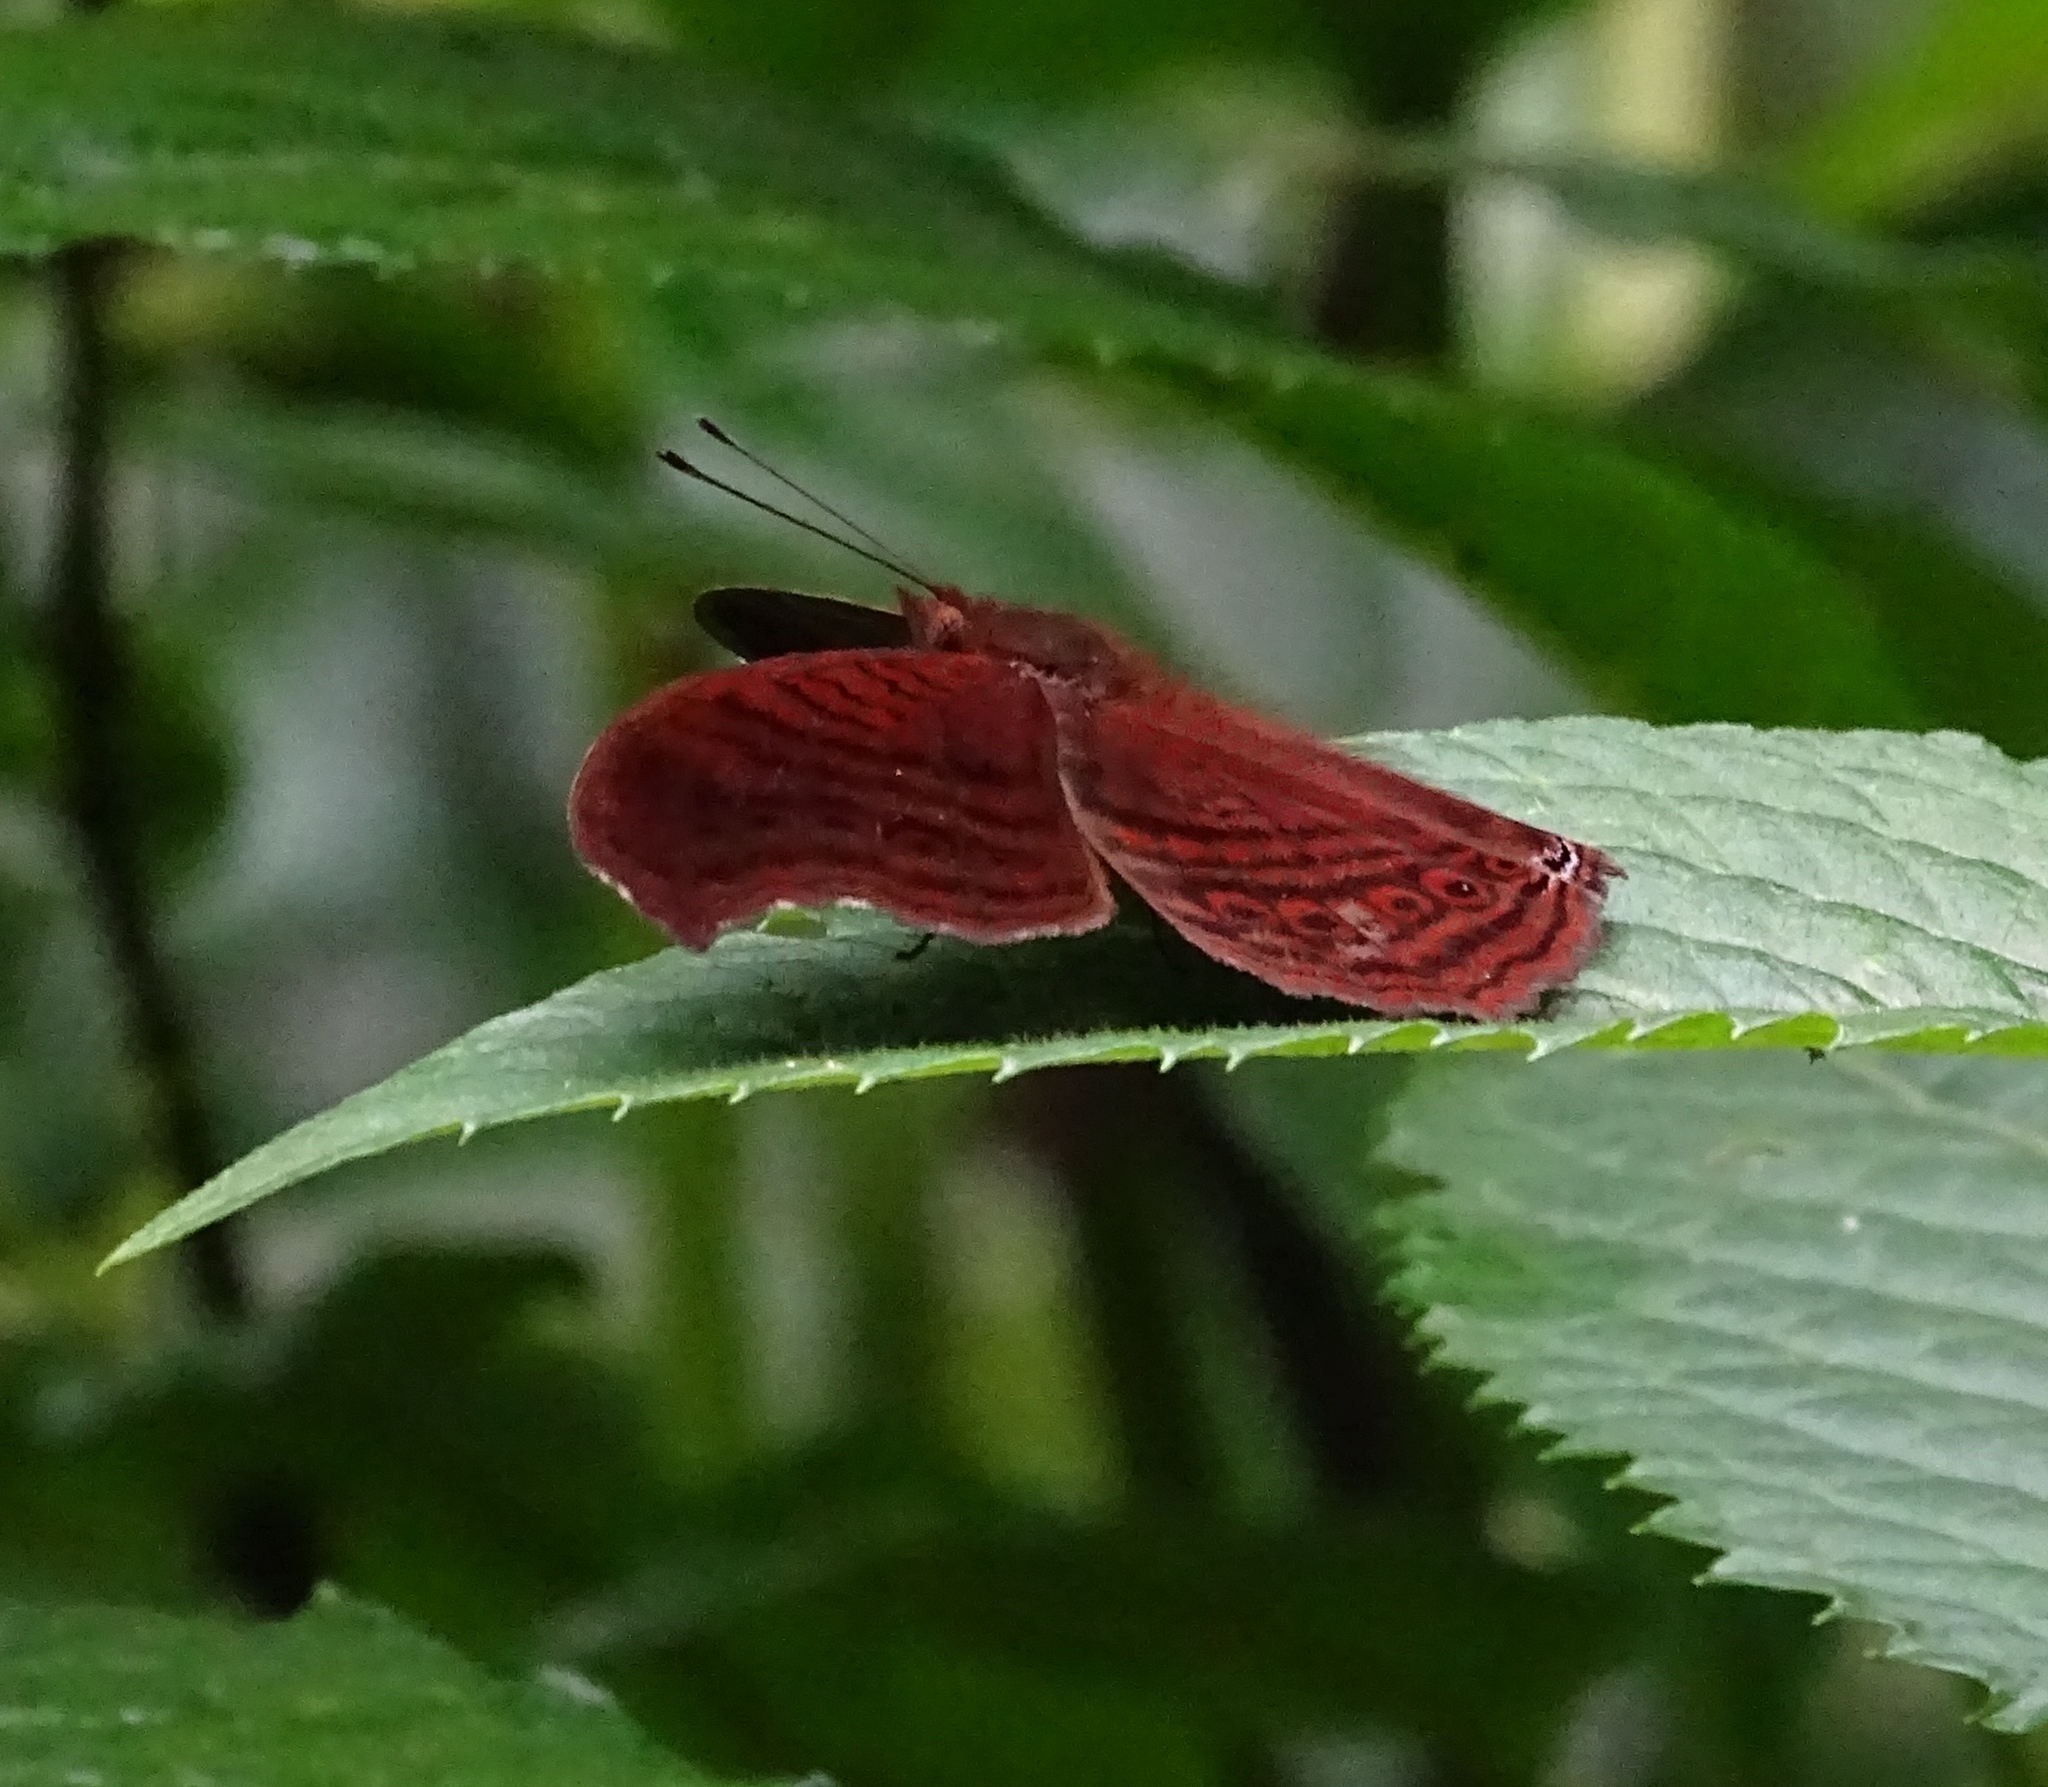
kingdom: Animalia
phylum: Arthropoda
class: Insecta
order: Lepidoptera
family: Nymphalidae
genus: Junonia
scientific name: Junonia stygia
